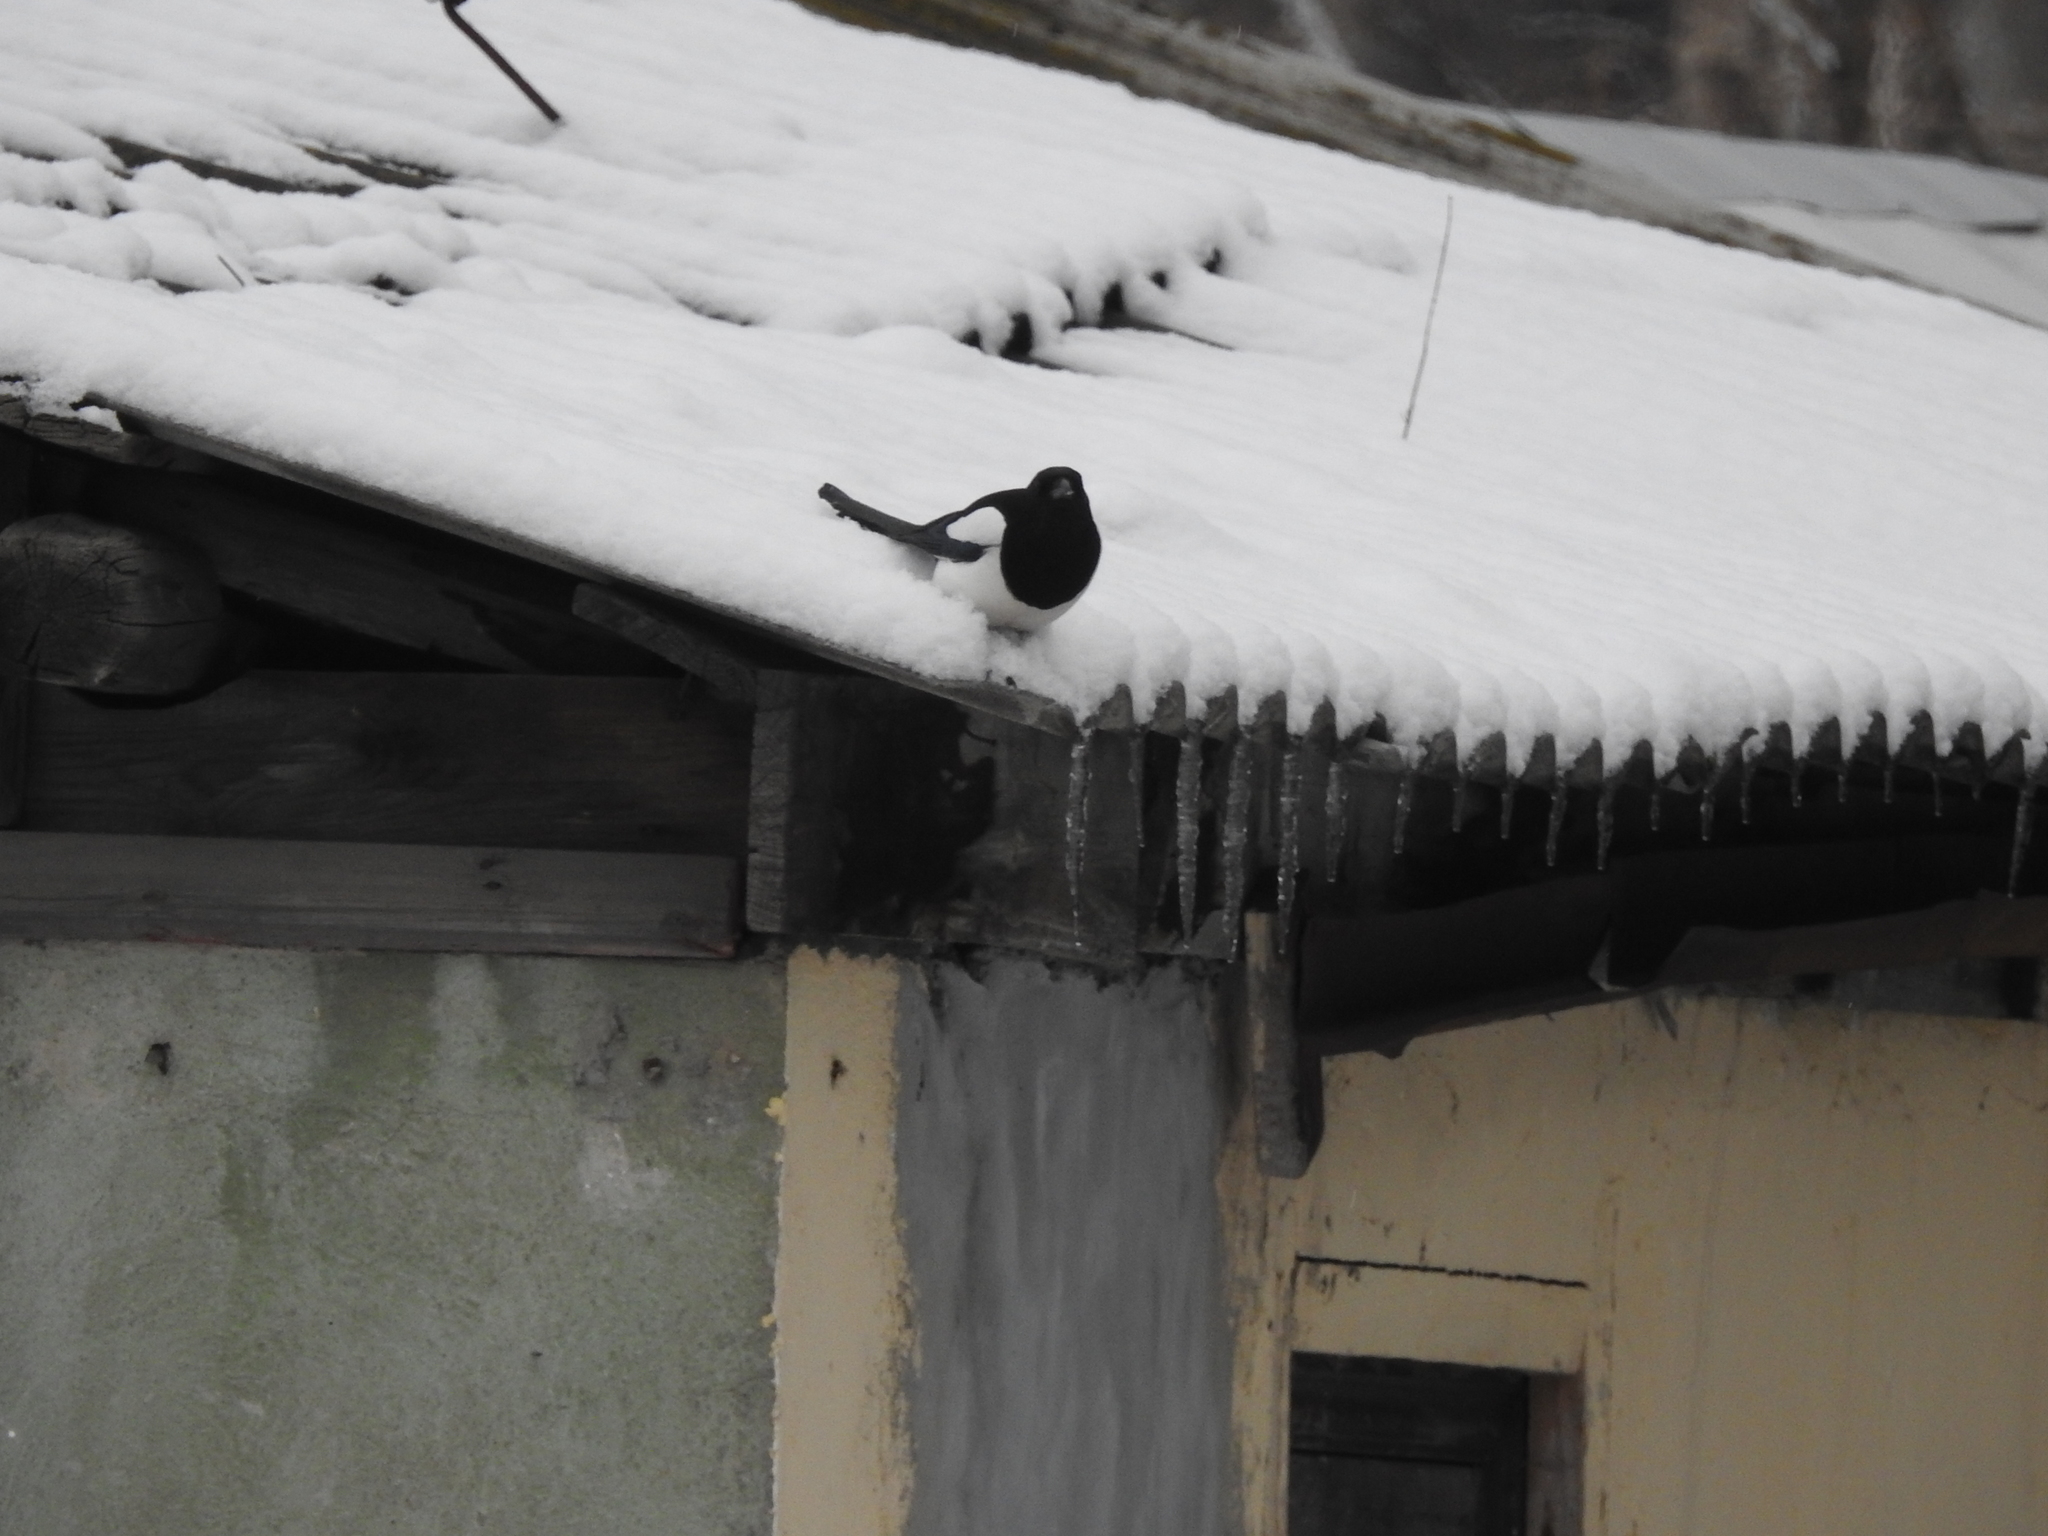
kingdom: Animalia
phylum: Chordata
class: Aves
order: Passeriformes
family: Corvidae
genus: Pica
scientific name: Pica pica
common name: Eurasian magpie
